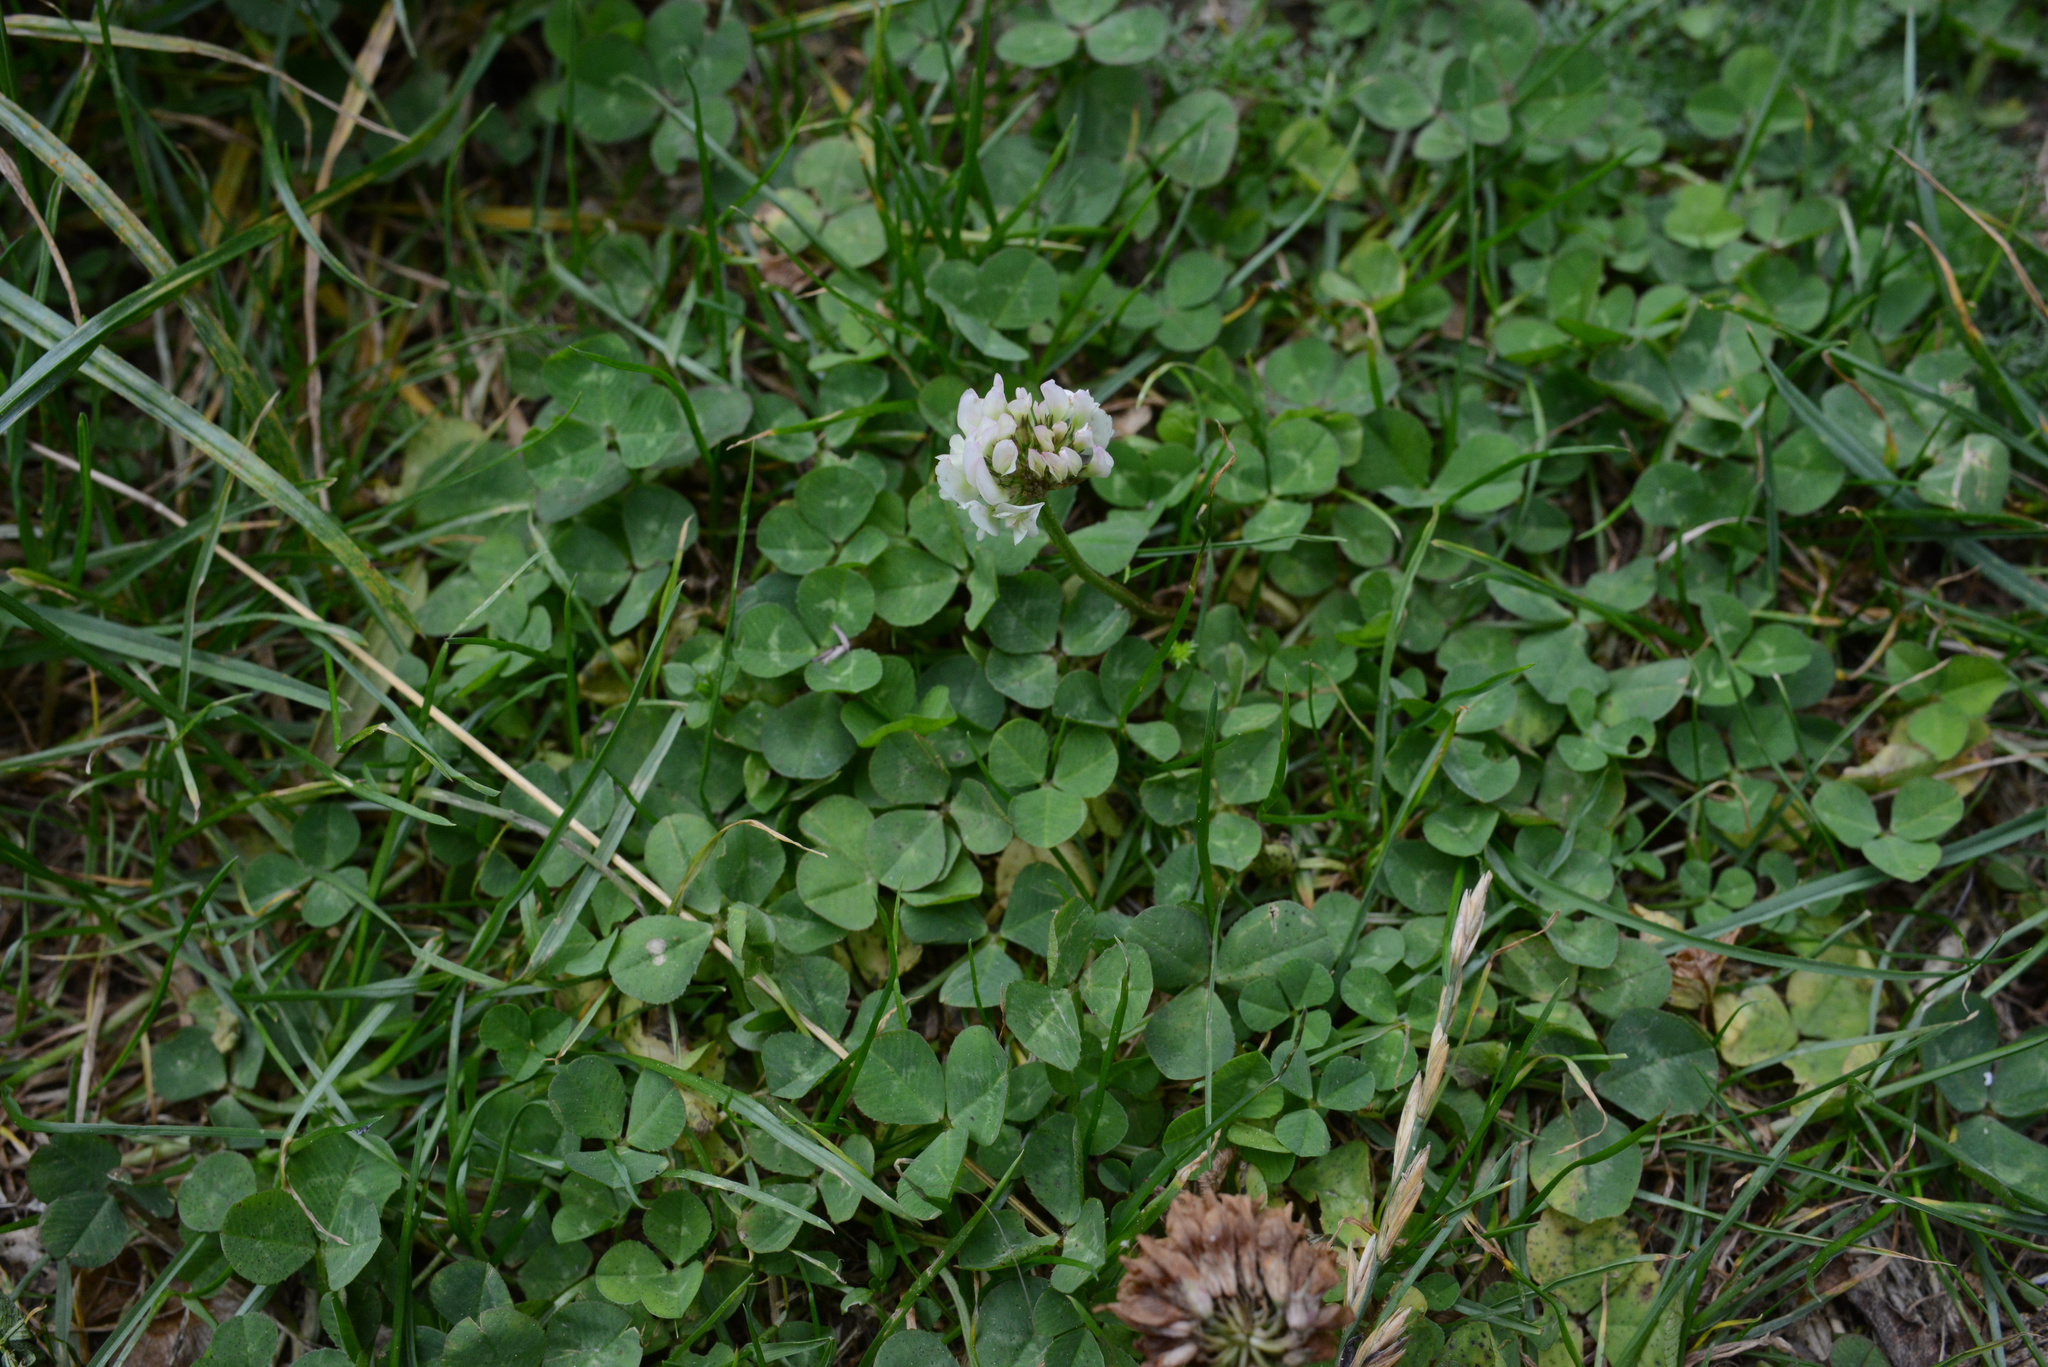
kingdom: Plantae
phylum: Tracheophyta
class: Magnoliopsida
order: Fabales
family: Fabaceae
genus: Trifolium
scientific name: Trifolium repens
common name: White clover
